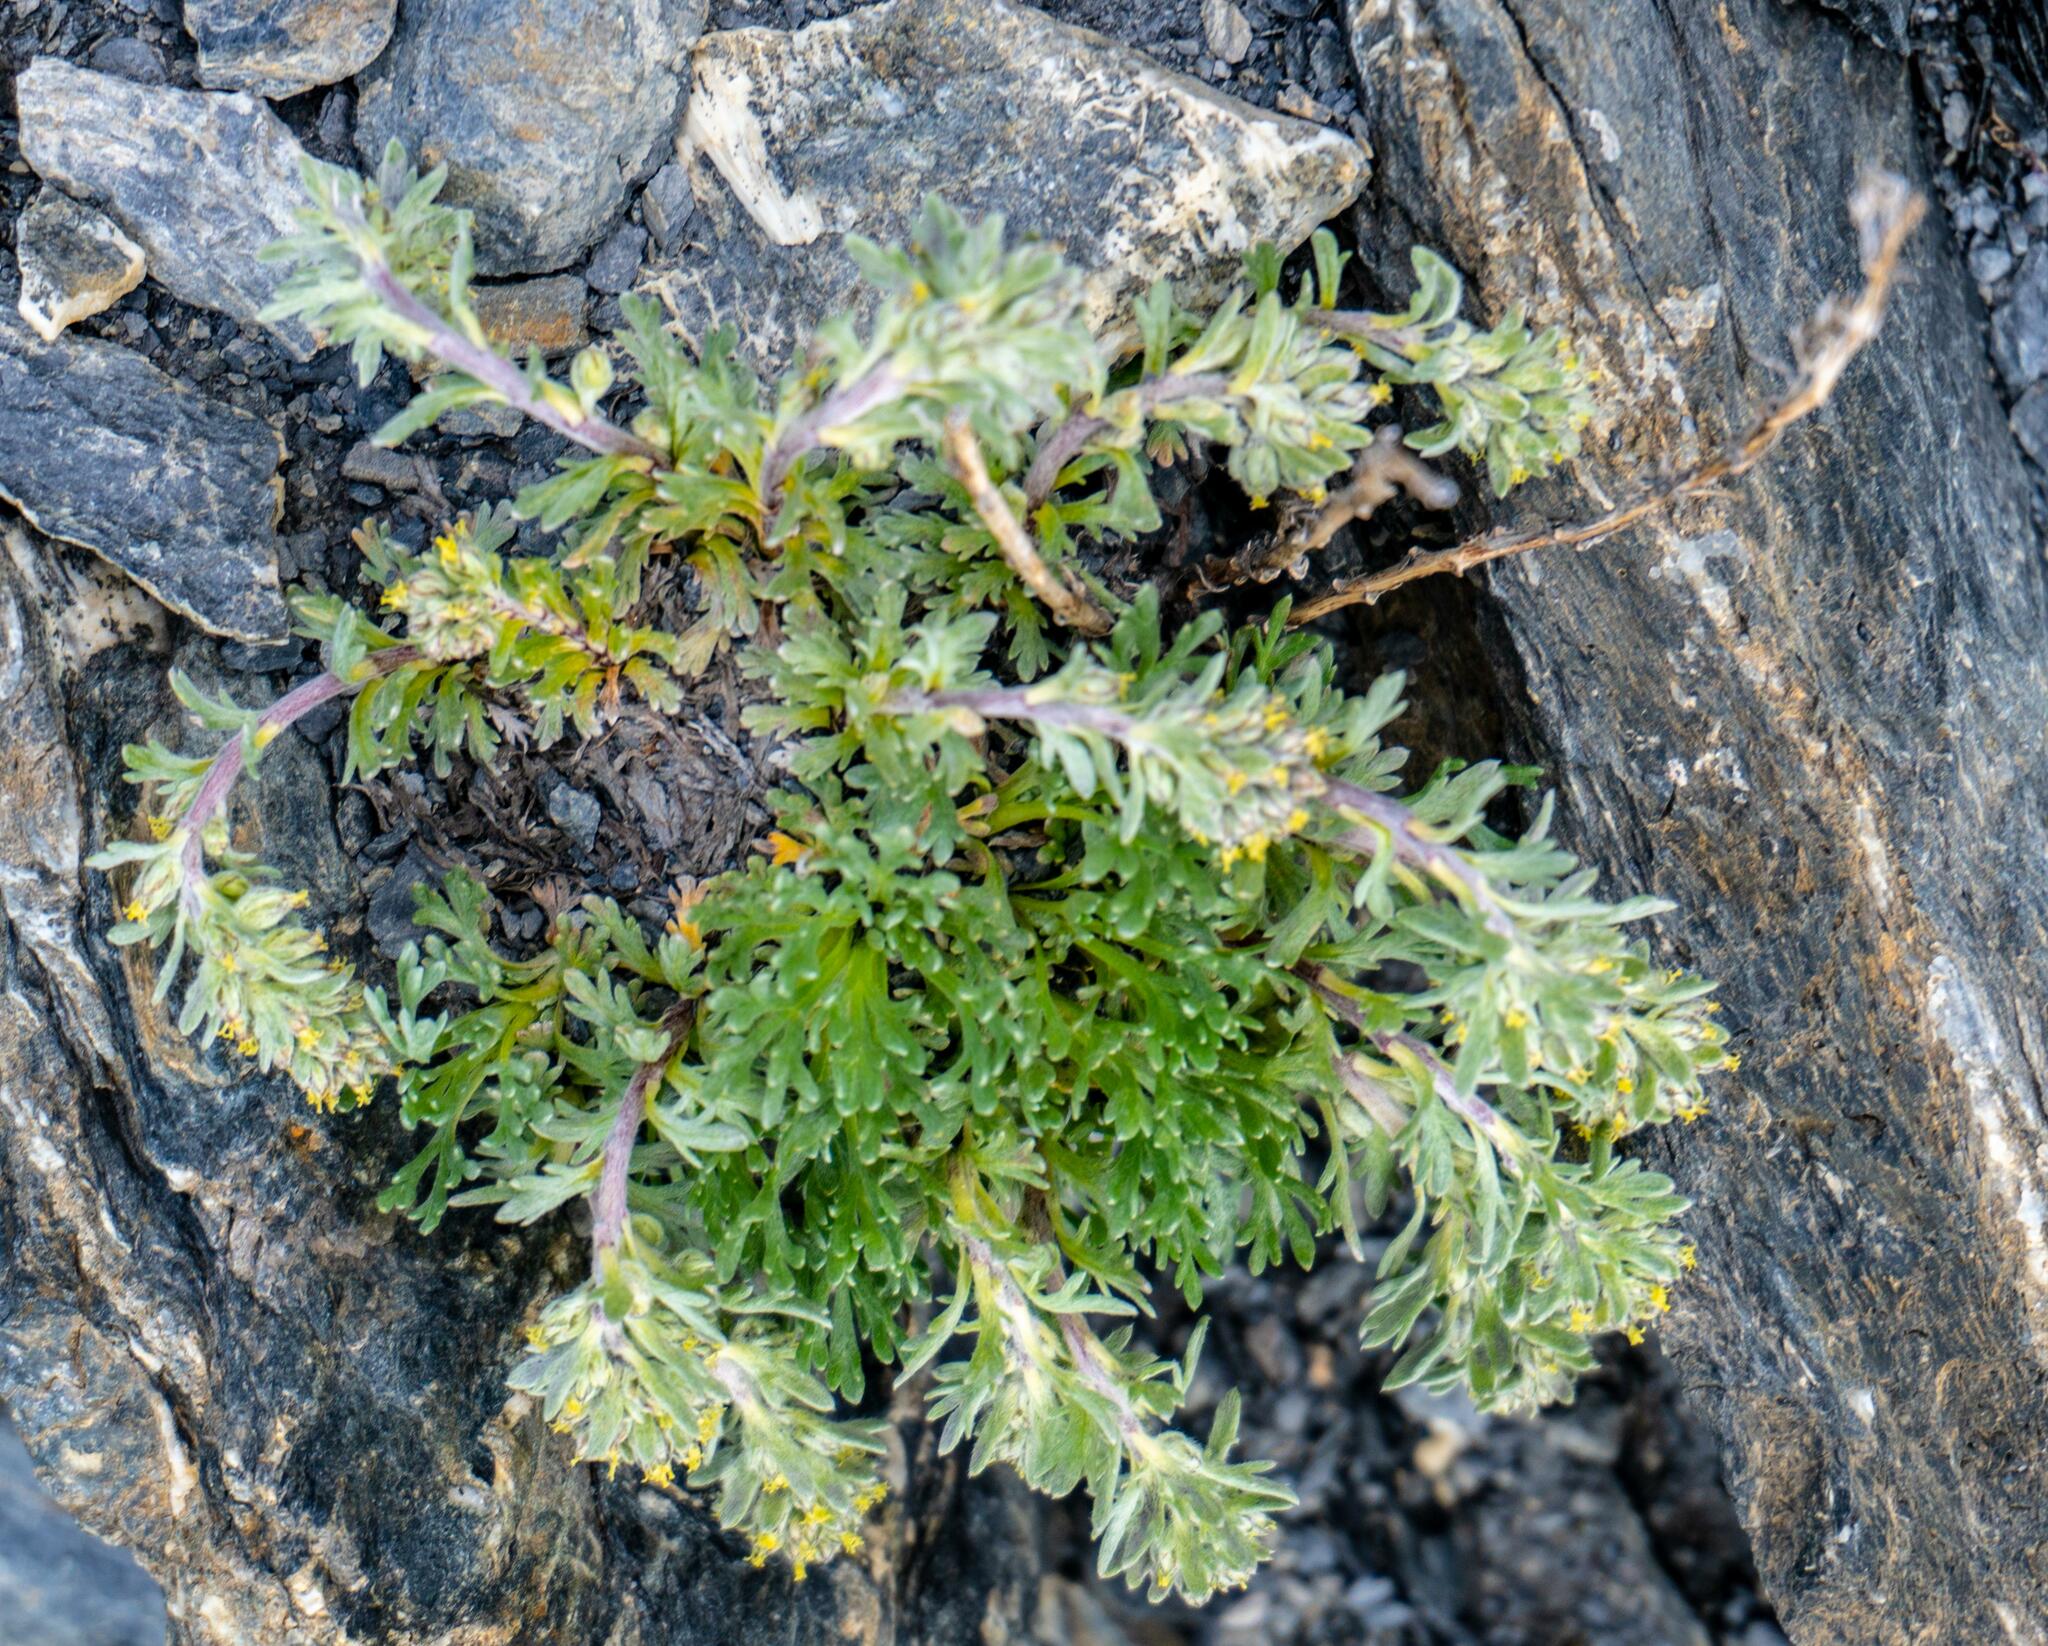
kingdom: Plantae
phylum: Tracheophyta
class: Magnoliopsida
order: Asterales
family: Asteraceae
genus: Artemisia
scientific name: Artemisia genipi
